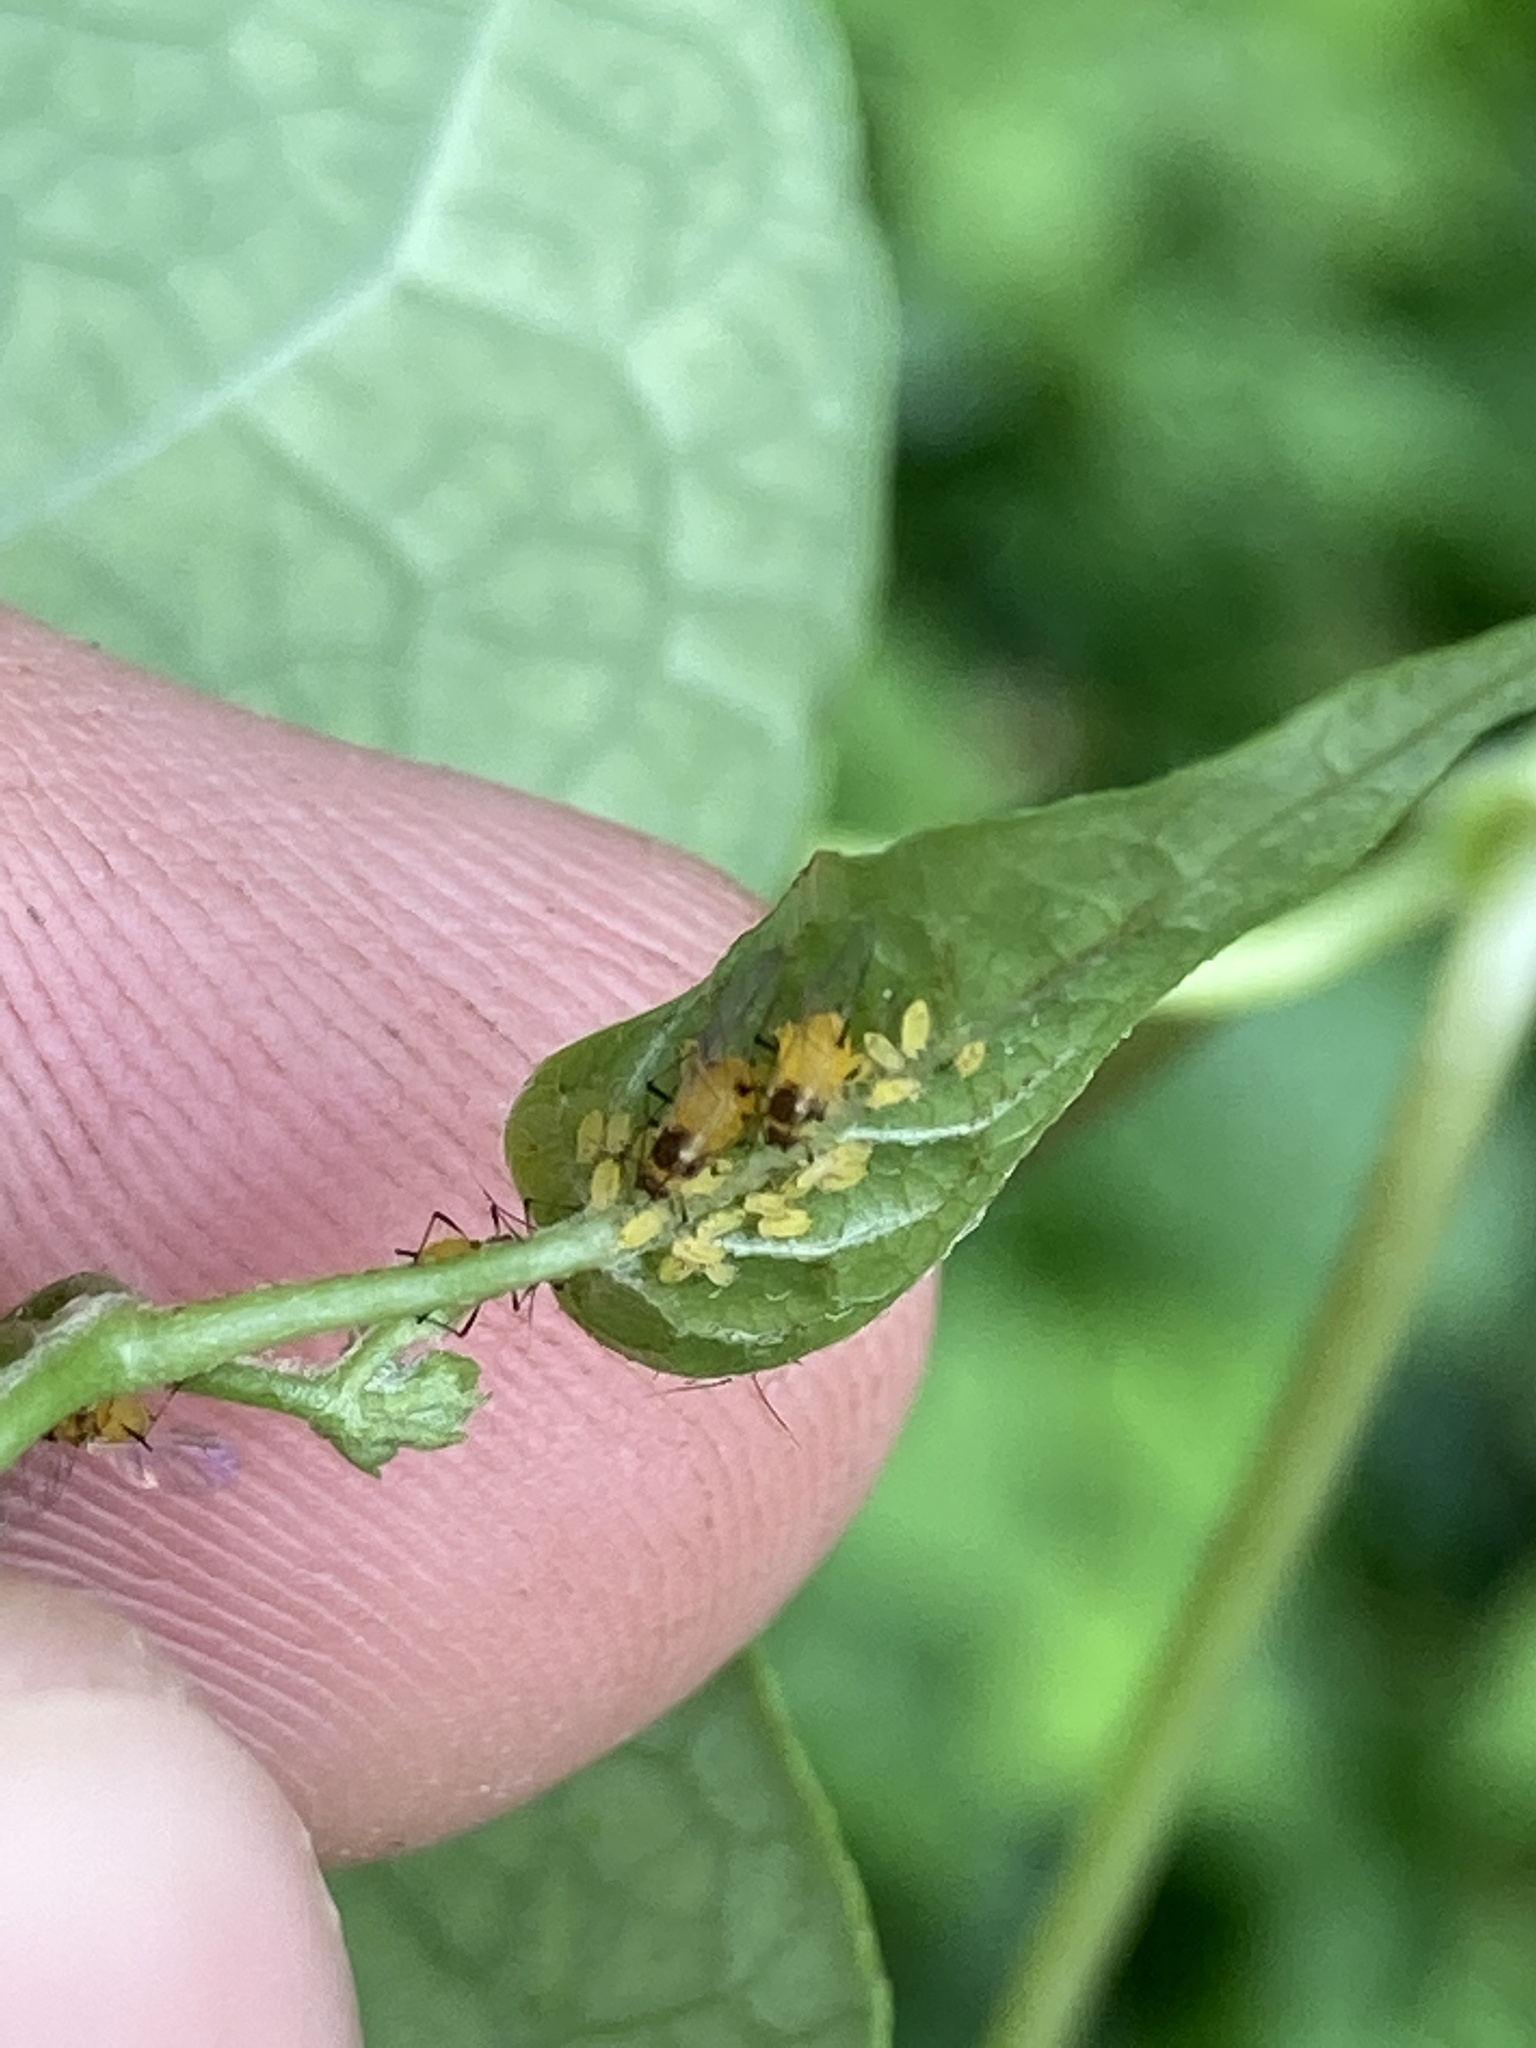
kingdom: Animalia
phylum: Arthropoda
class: Insecta
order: Hemiptera
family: Aphididae
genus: Aphis
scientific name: Aphis nerii
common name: Oleander aphid
